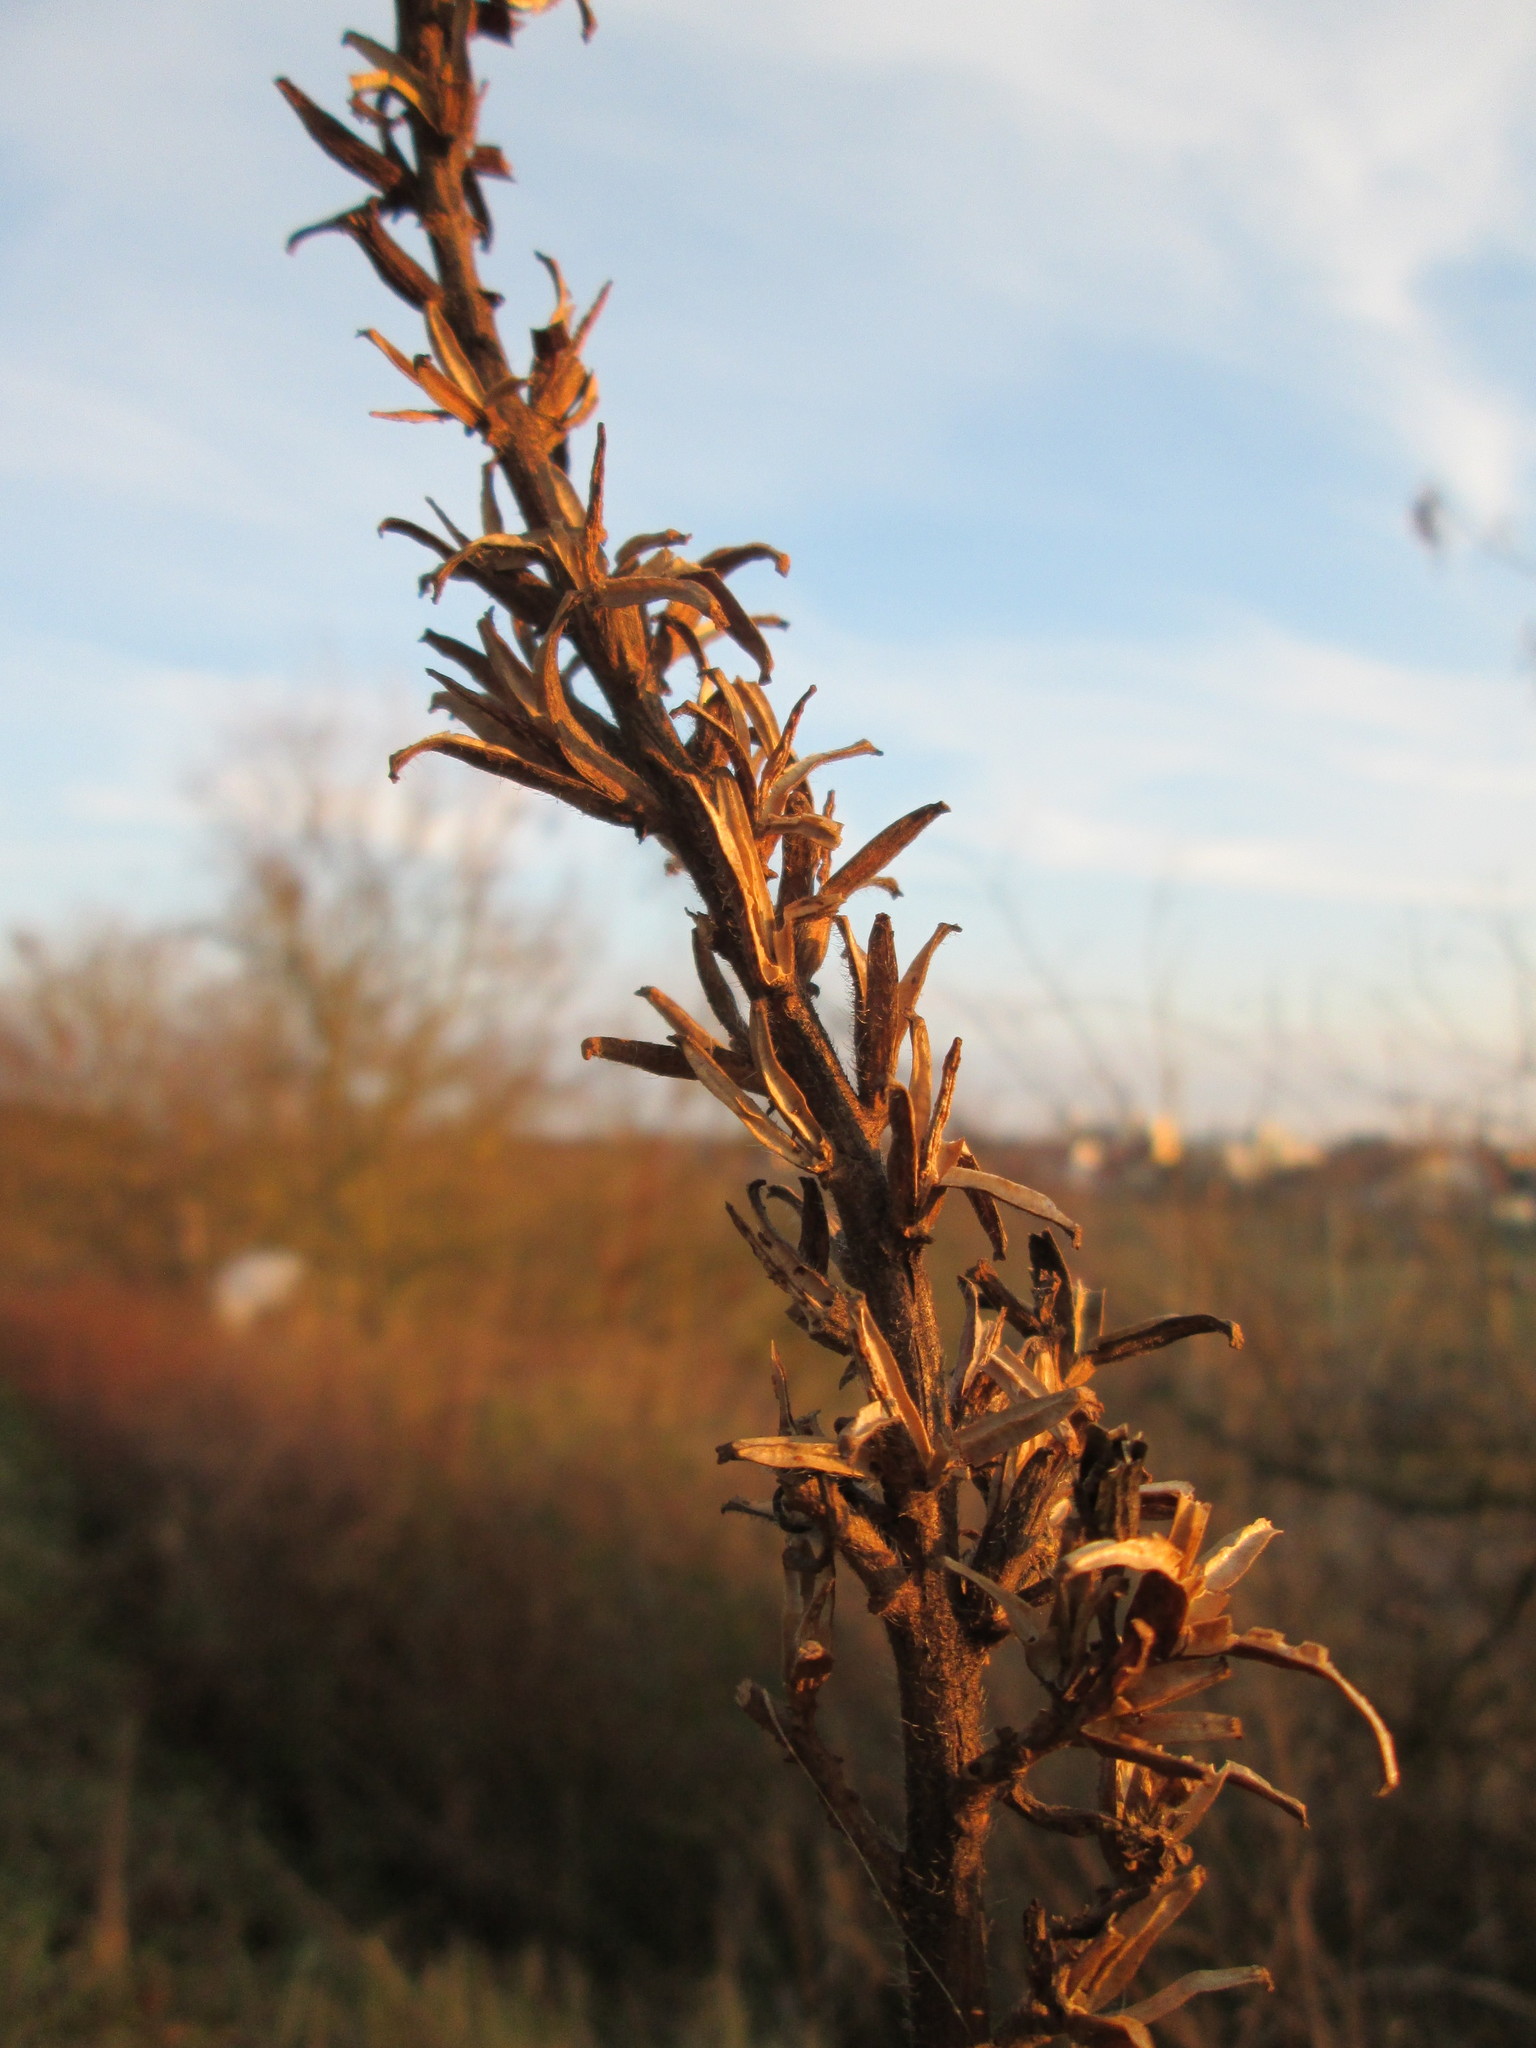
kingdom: Plantae
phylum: Tracheophyta
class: Magnoliopsida
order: Myrtales
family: Onagraceae
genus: Oenothera
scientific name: Oenothera biennis
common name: Common evening-primrose
